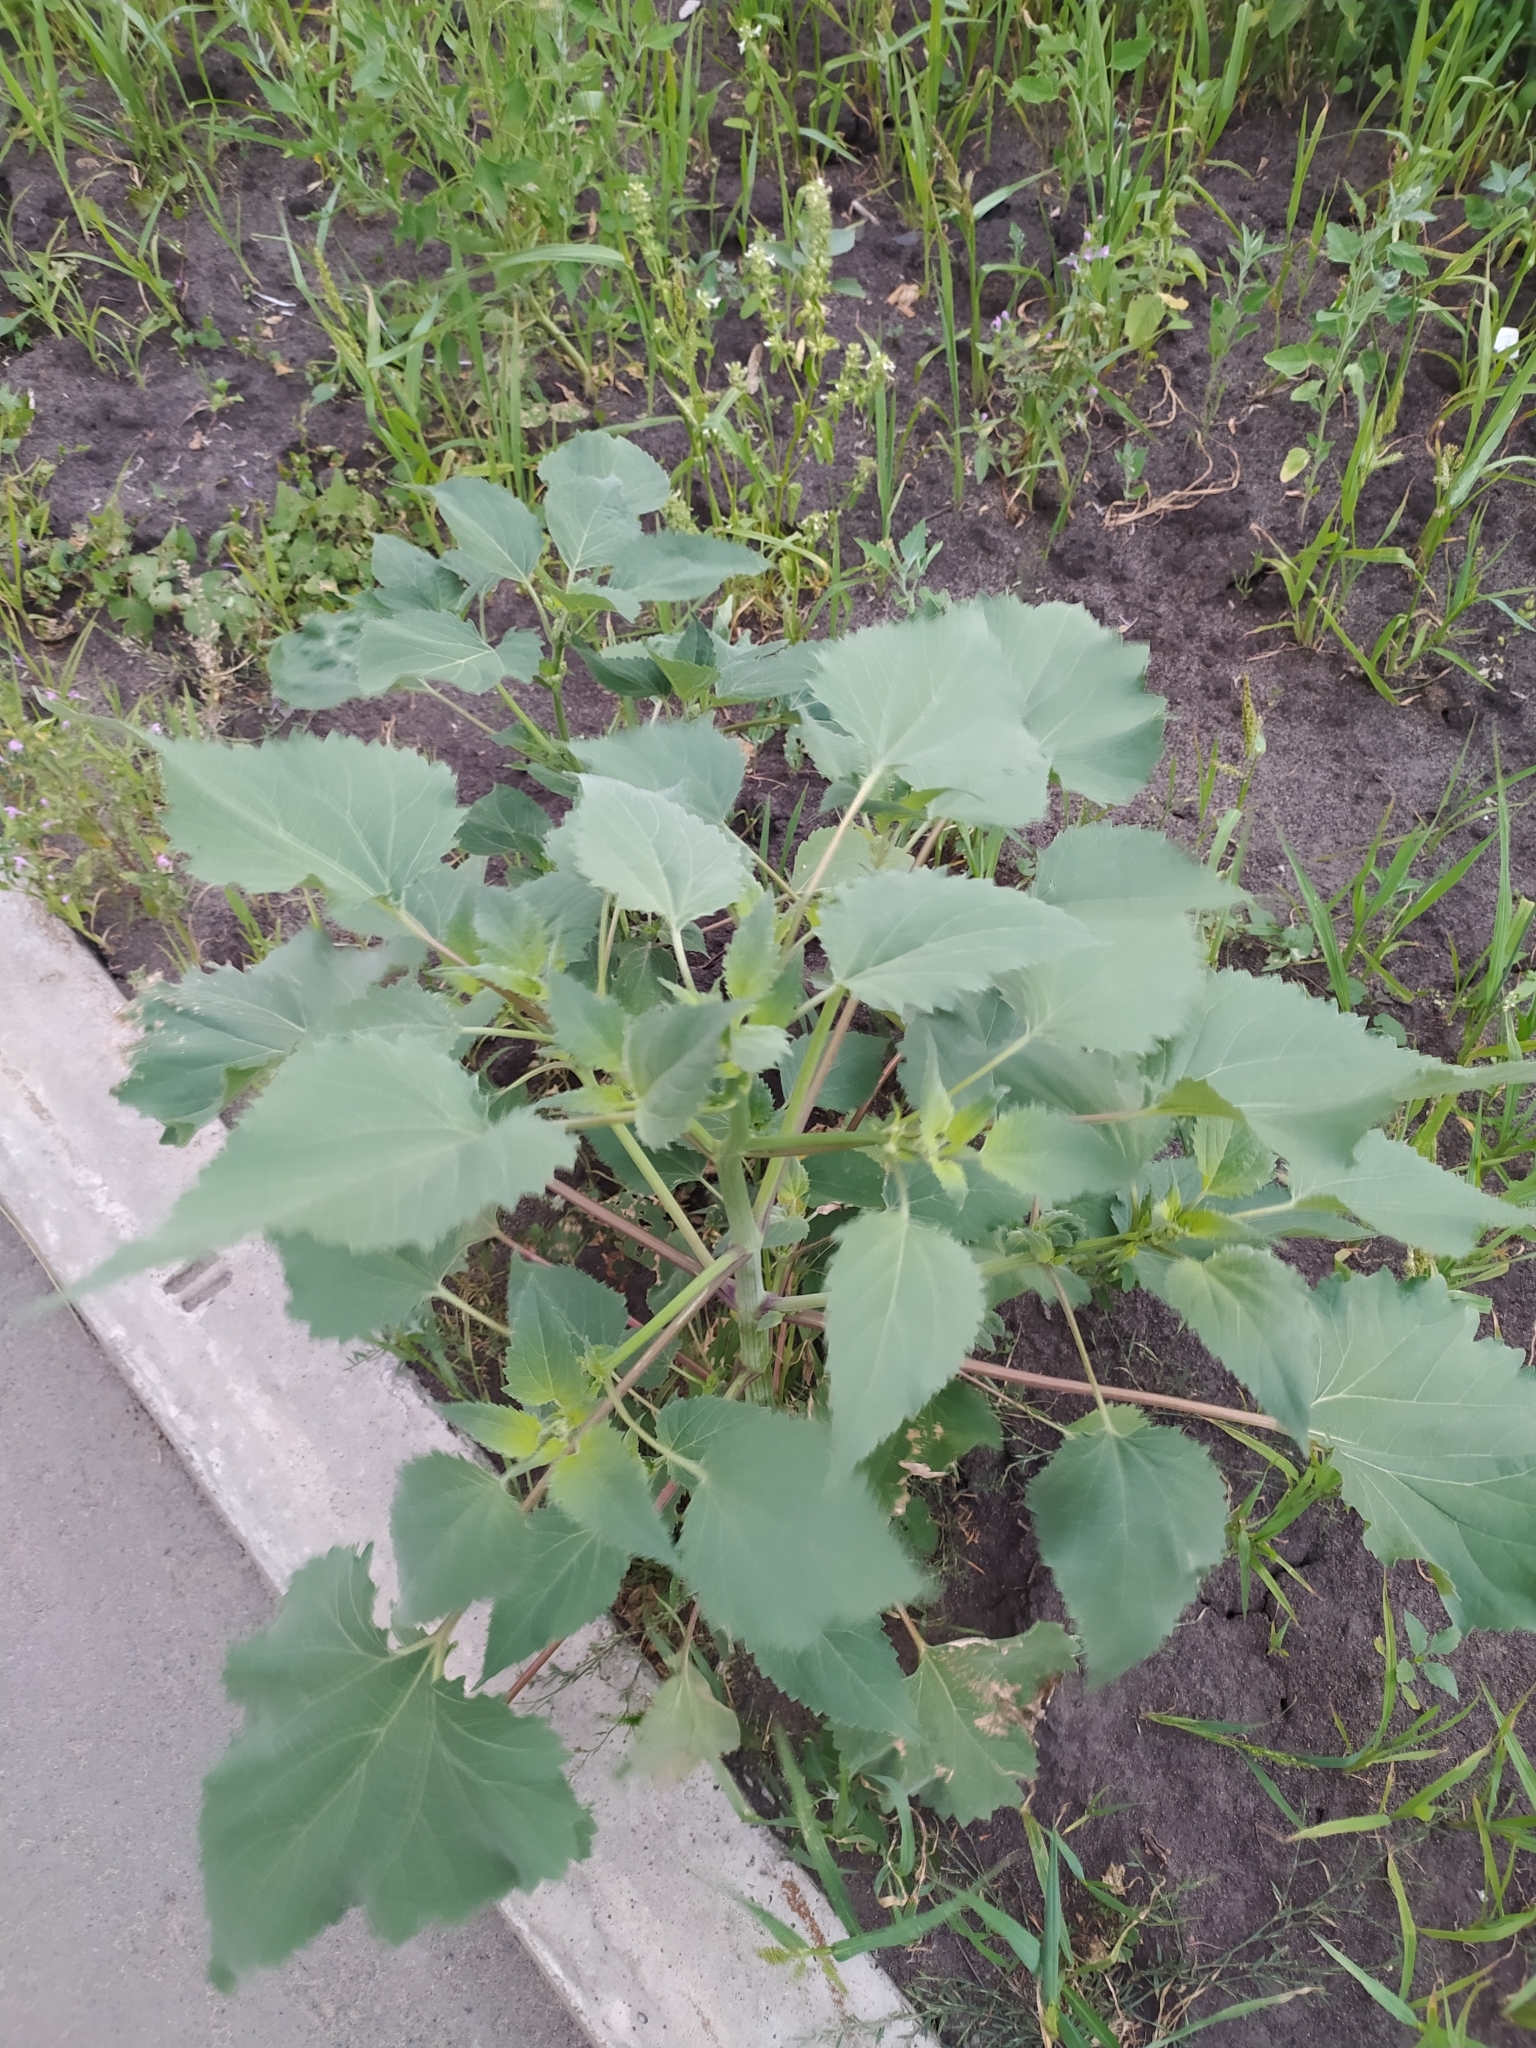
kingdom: Plantae
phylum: Tracheophyta
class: Magnoliopsida
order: Asterales
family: Asteraceae
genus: Cyclachaena
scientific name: Cyclachaena xanthiifolia
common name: Giant sumpweed
